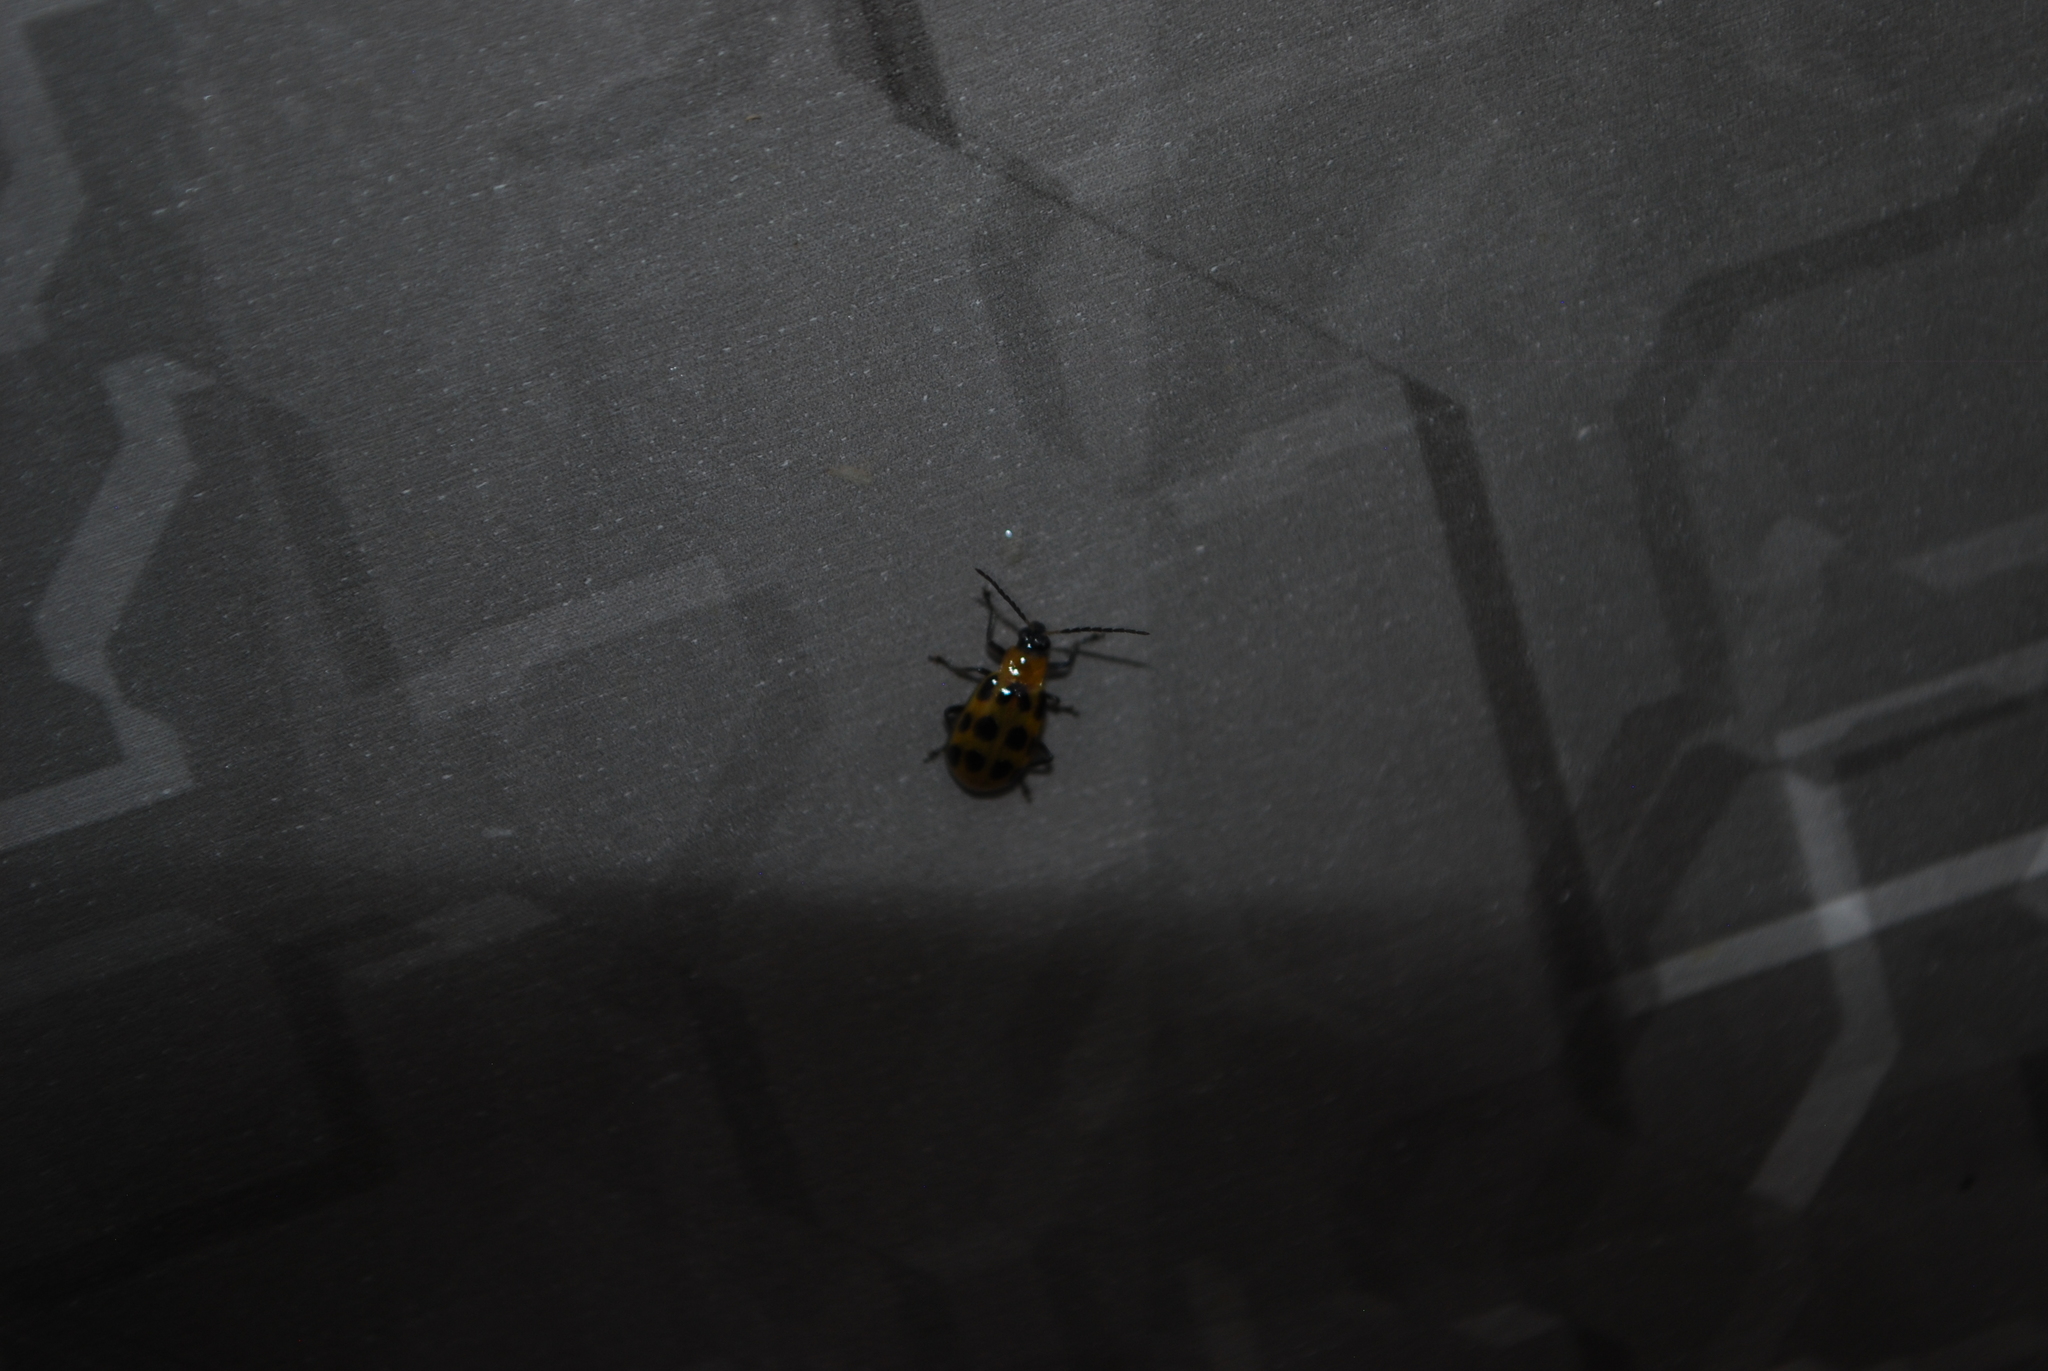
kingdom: Animalia
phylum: Arthropoda
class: Insecta
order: Coleoptera
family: Chrysomelidae
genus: Diabrotica
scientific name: Diabrotica undecimpunctata
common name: Spotted cucumber beetle
